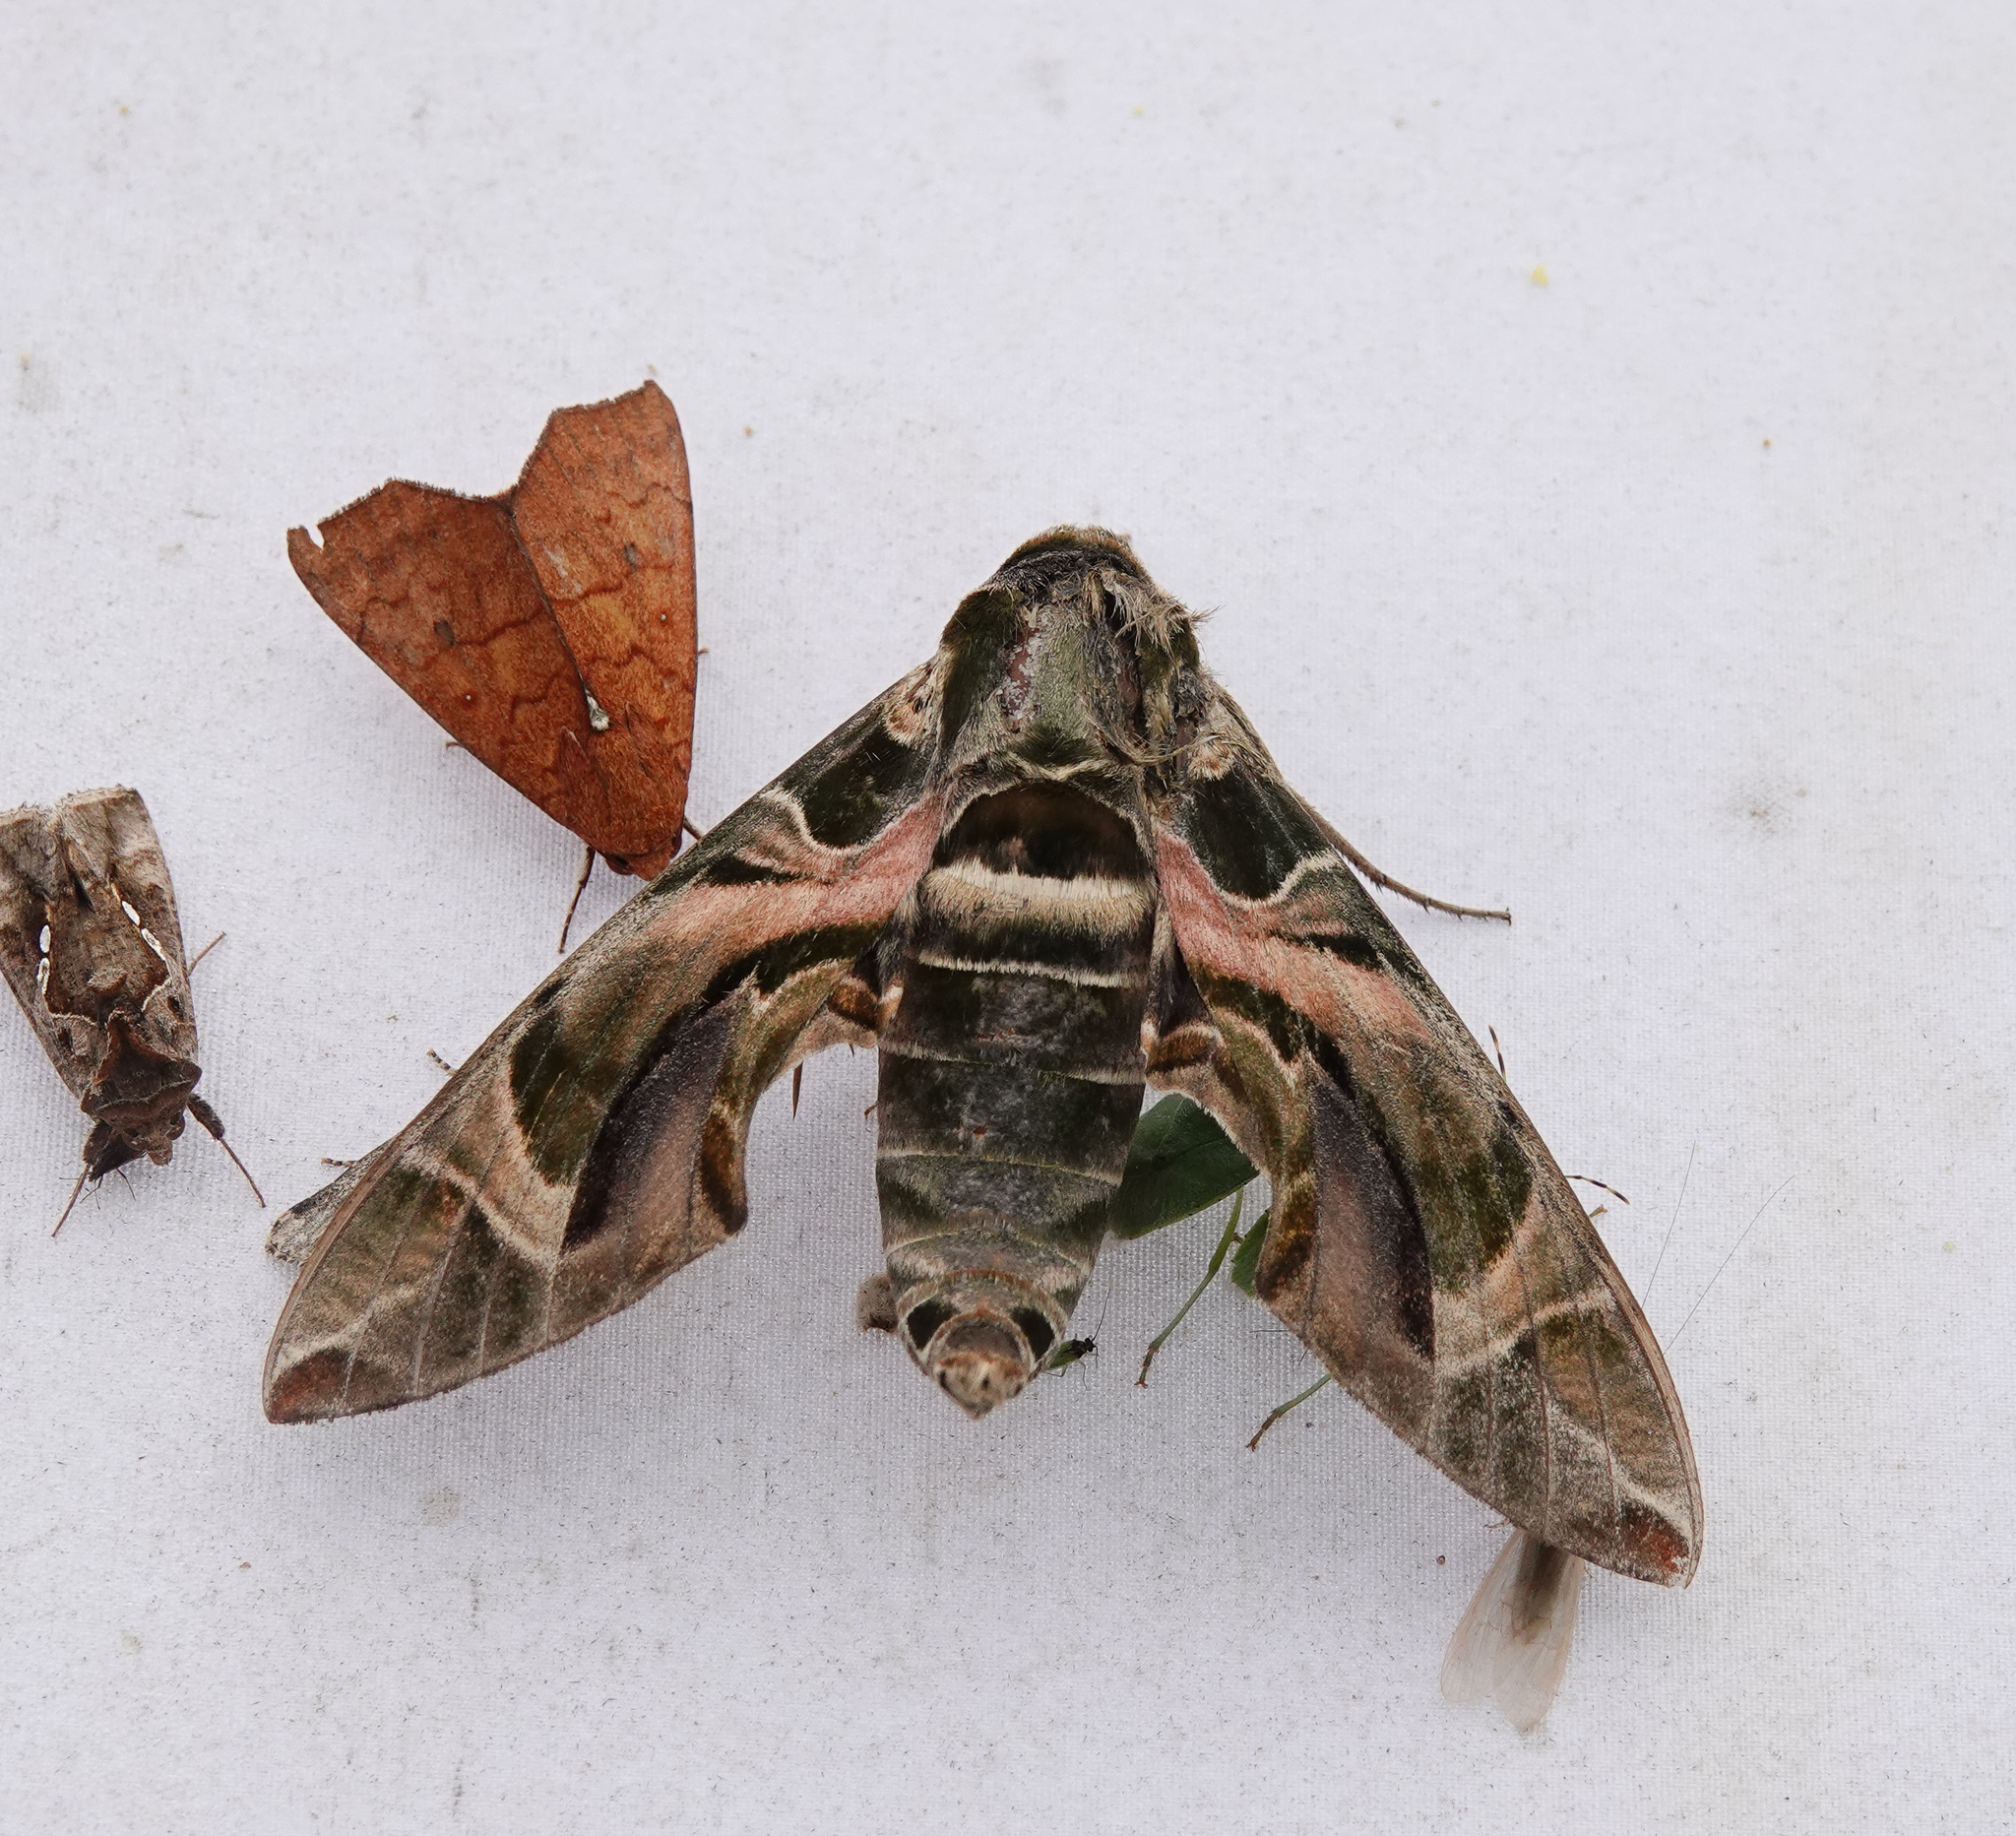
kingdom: Animalia
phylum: Arthropoda
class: Insecta
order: Lepidoptera
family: Sphingidae
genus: Daphnis
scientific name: Daphnis nerii
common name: Oleander hawk-moth
